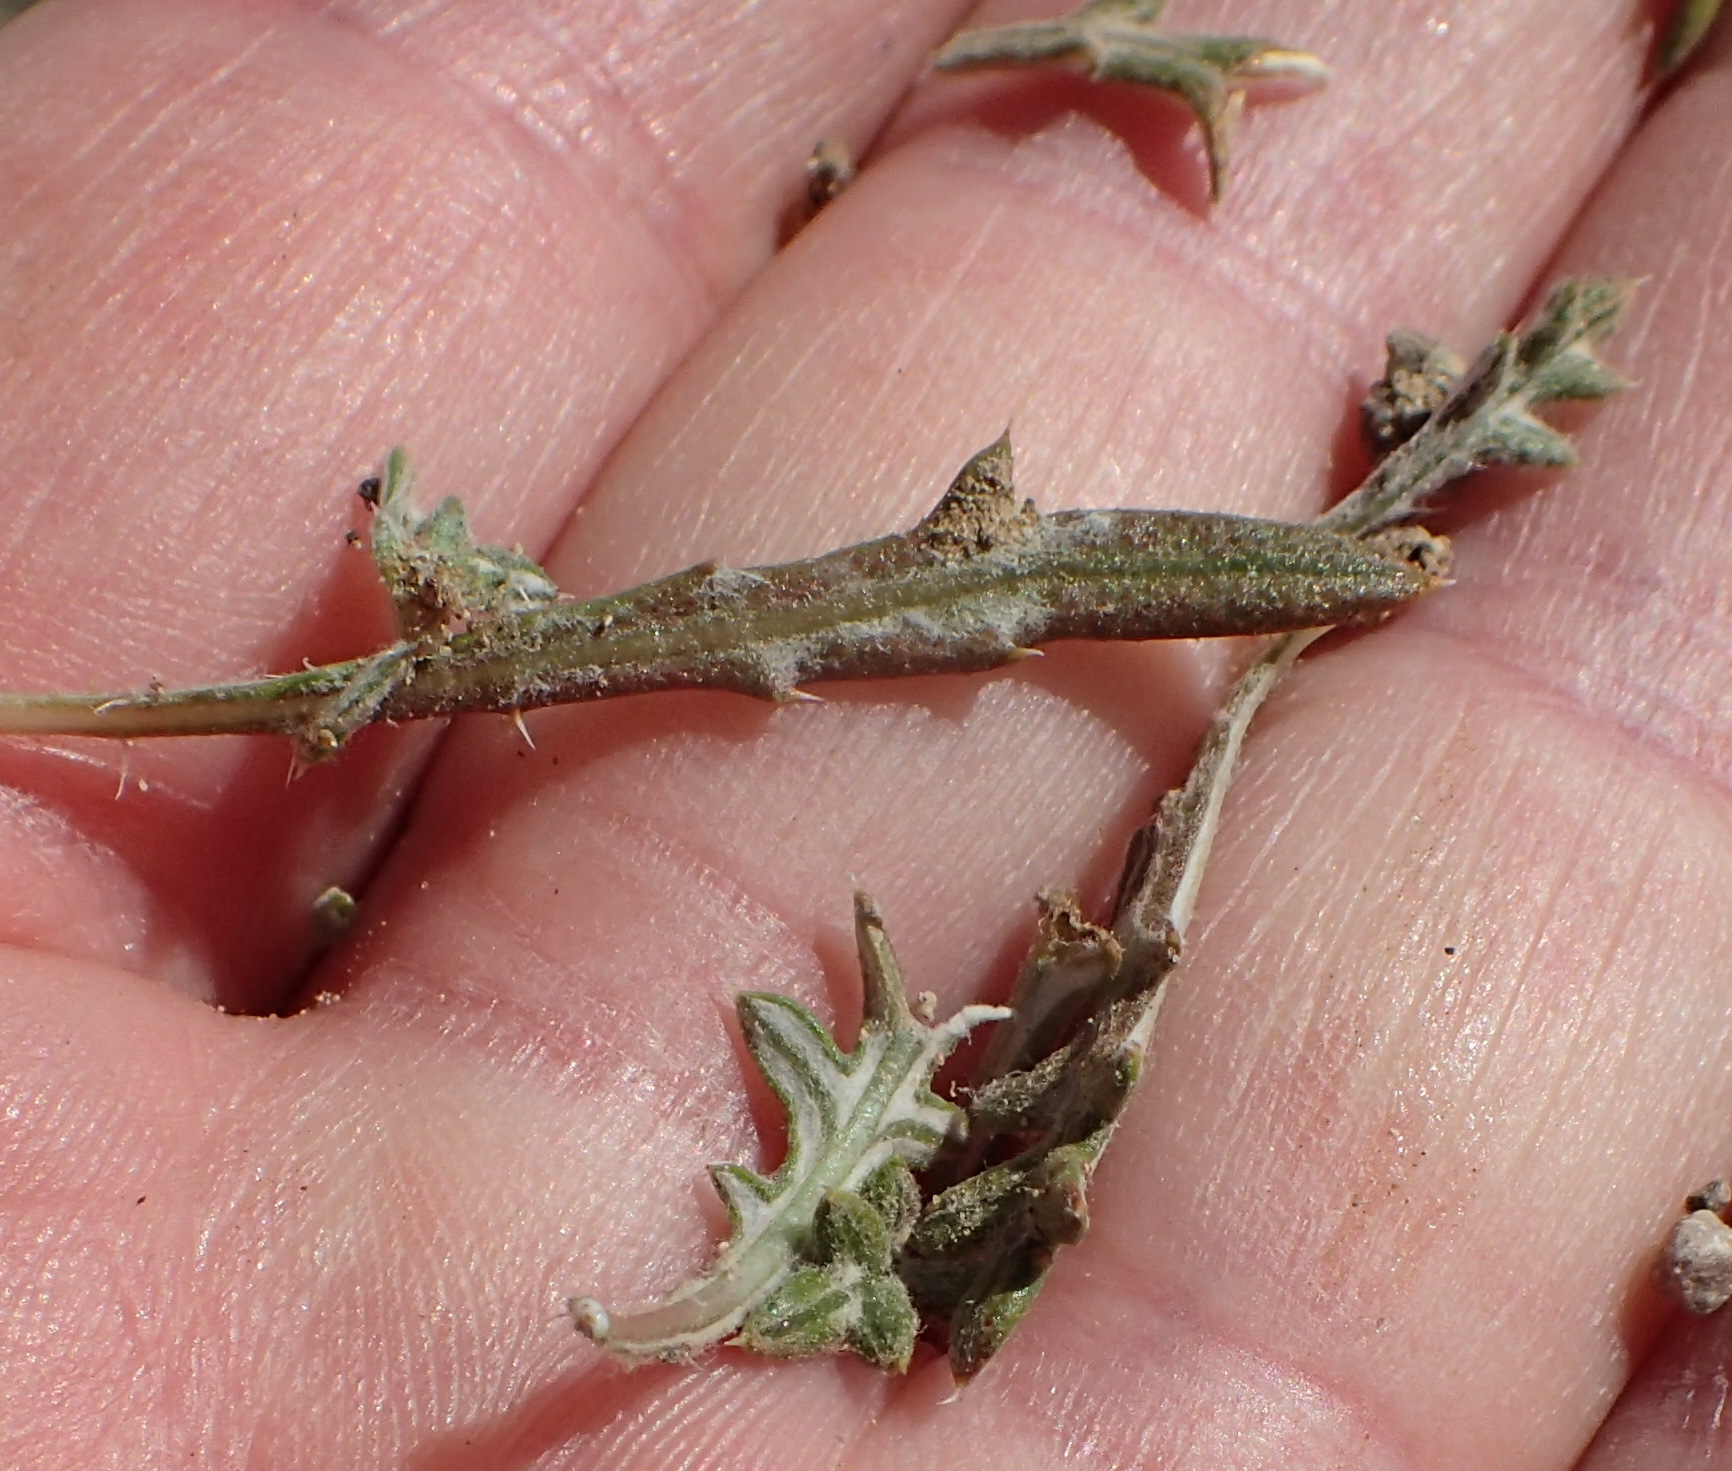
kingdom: Plantae
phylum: Tracheophyta
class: Magnoliopsida
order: Asterales
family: Asteraceae
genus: Gazania
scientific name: Gazania jurineifolia
